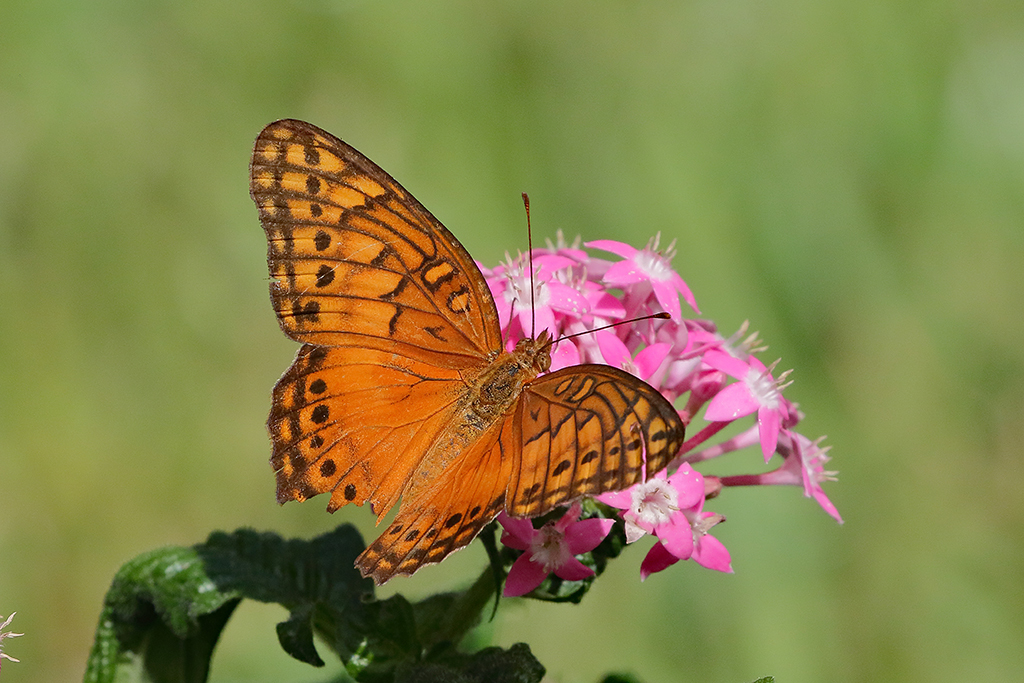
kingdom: Animalia
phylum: Arthropoda
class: Insecta
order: Lepidoptera
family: Nymphalidae
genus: Euptoieta
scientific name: Euptoieta hegesia
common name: Mexican fritillary
